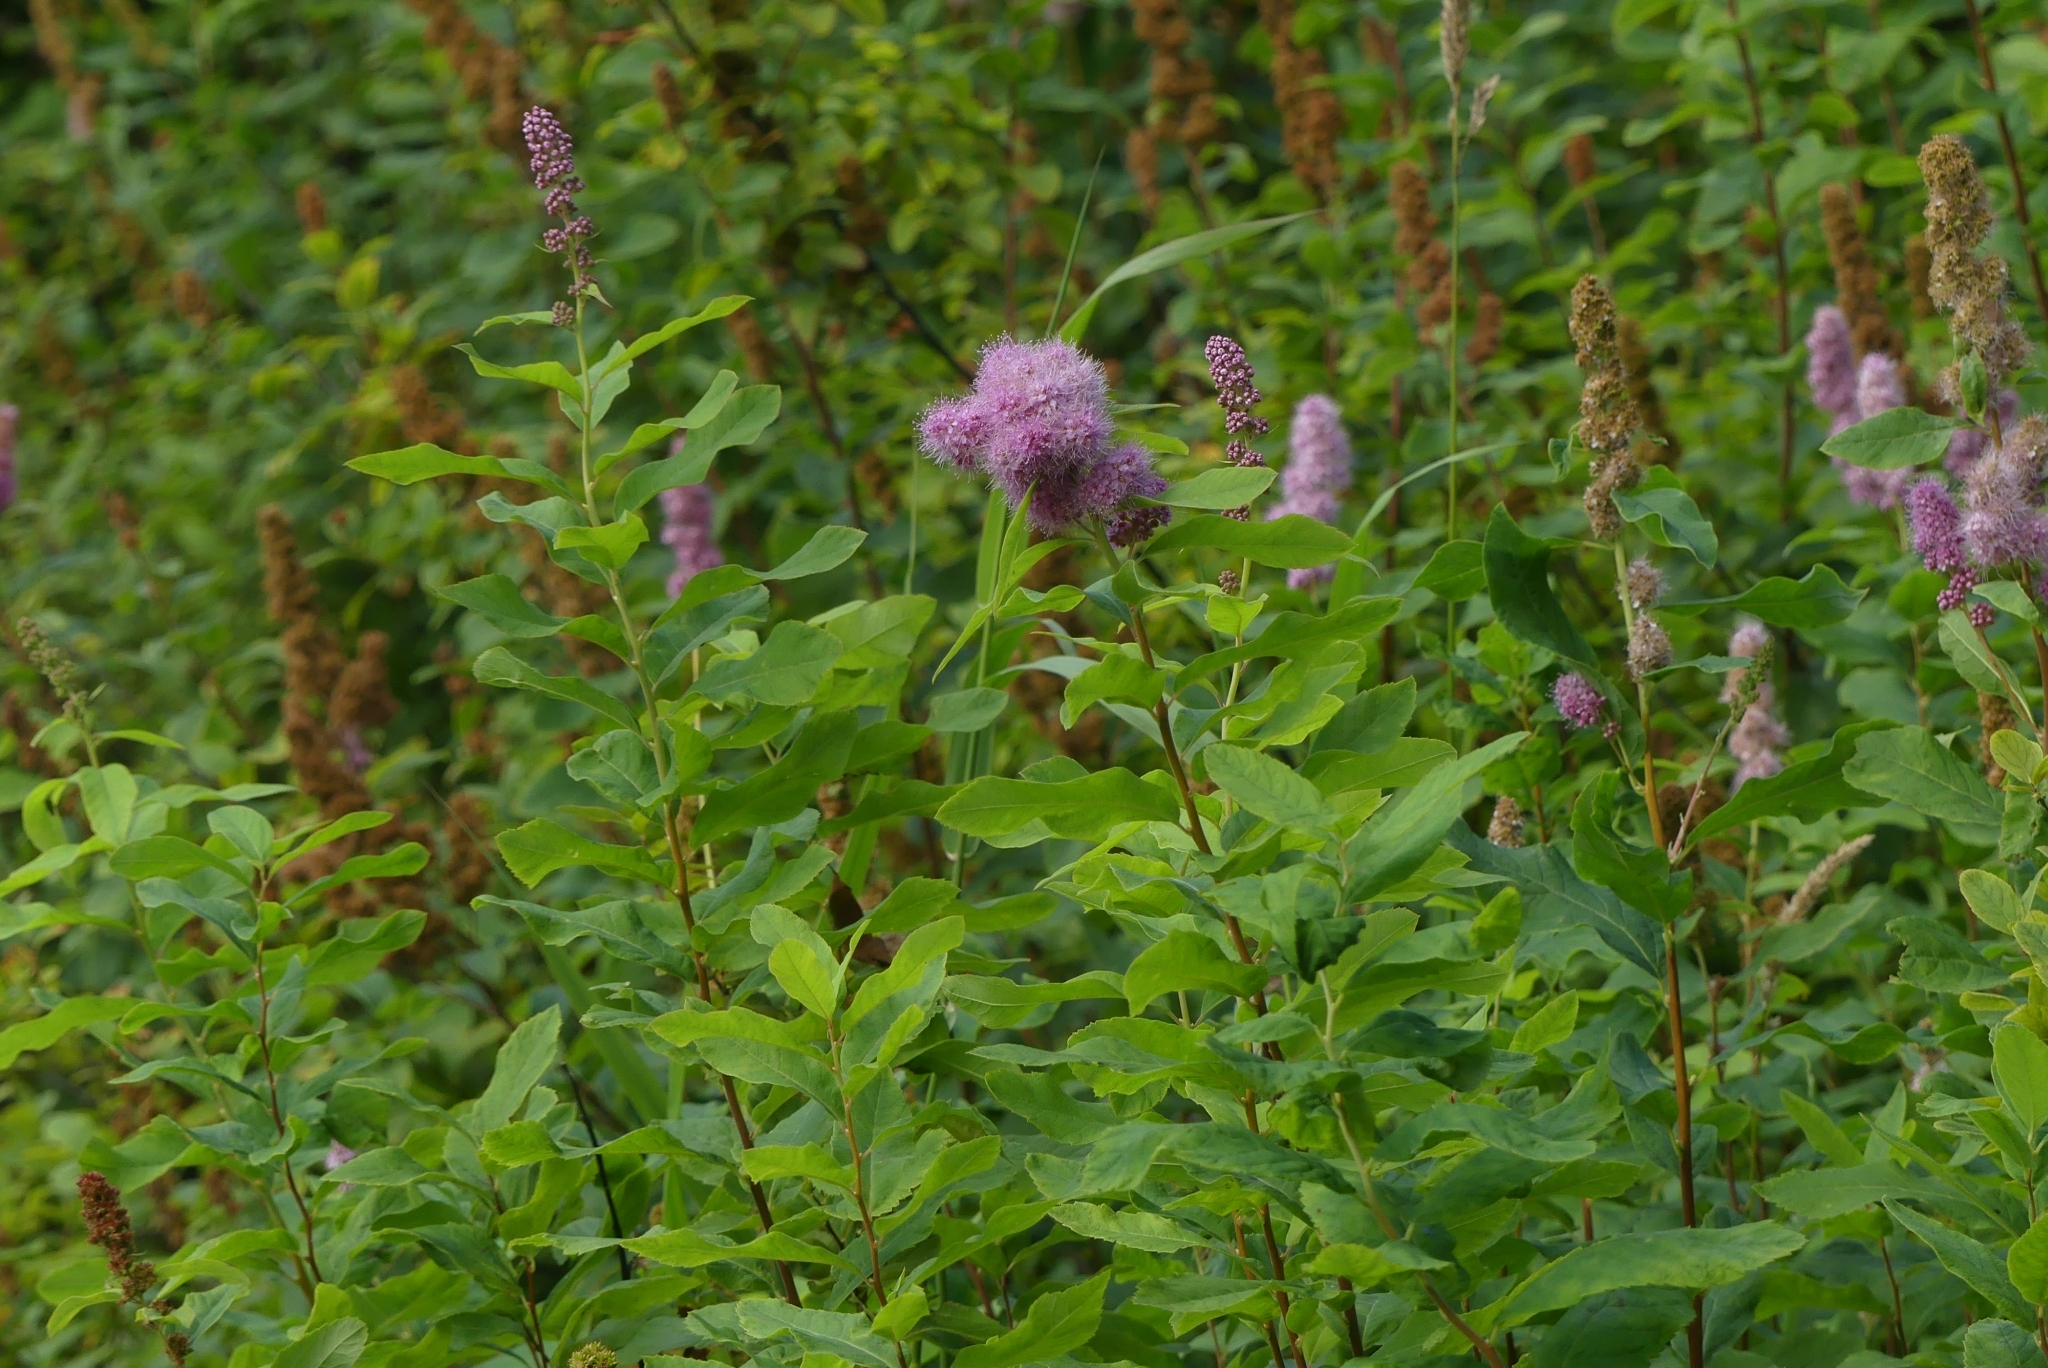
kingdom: Plantae
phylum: Tracheophyta
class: Magnoliopsida
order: Rosales
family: Rosaceae
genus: Spiraea
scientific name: Spiraea douglasii
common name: Steeplebush
